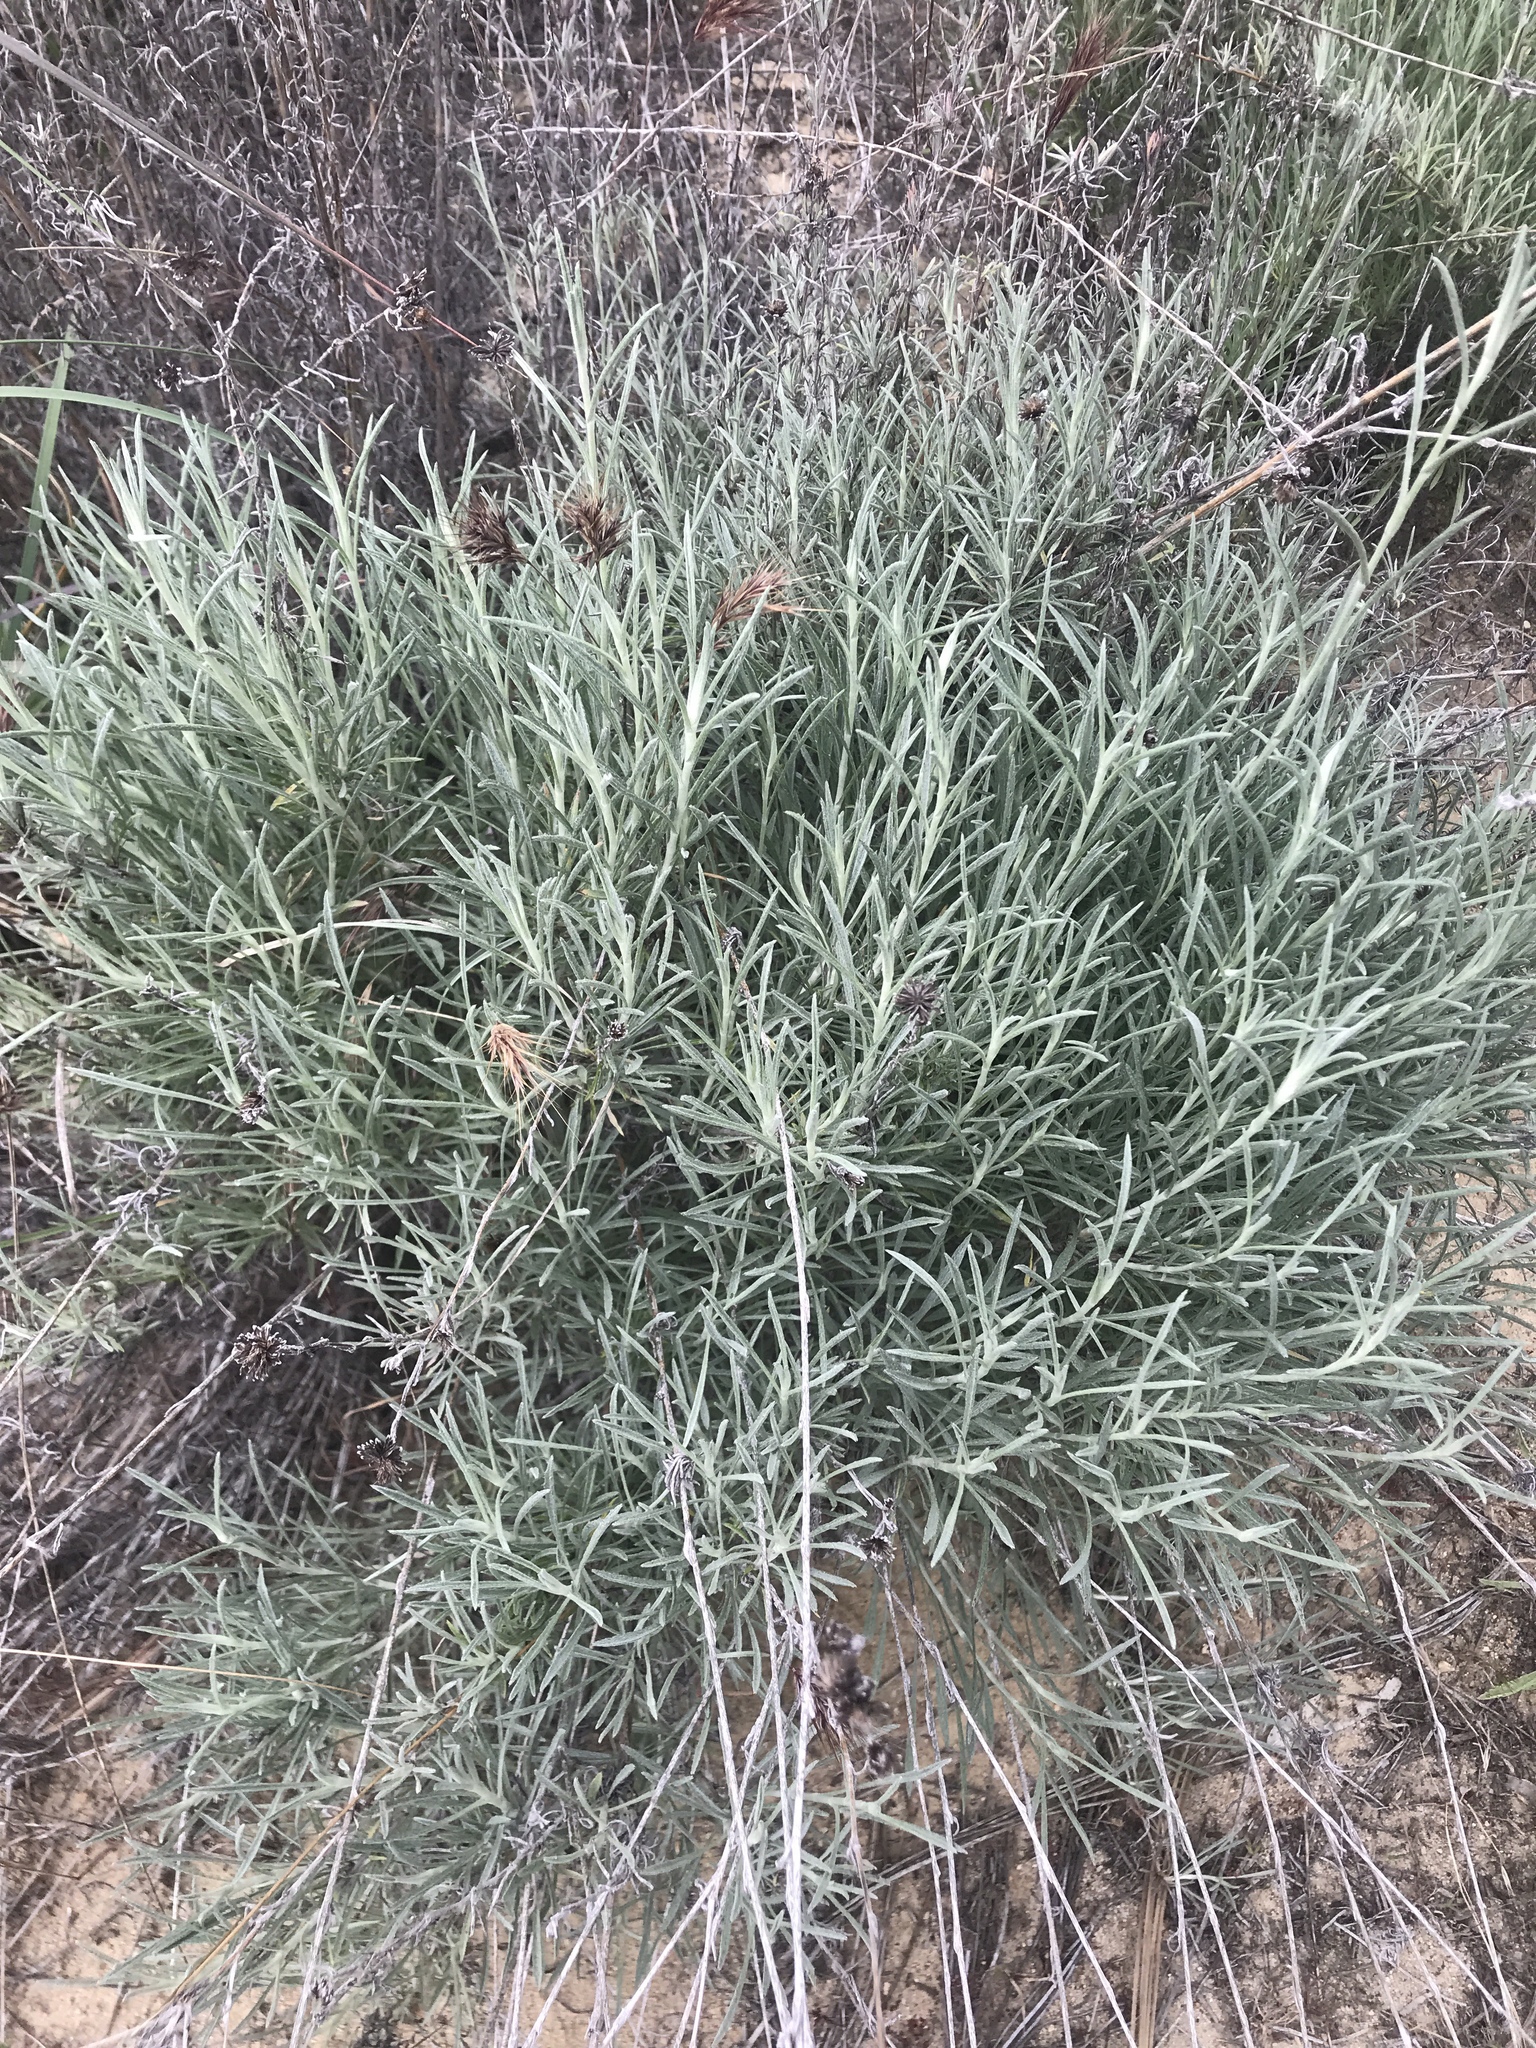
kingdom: Plantae
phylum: Tracheophyta
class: Magnoliopsida
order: Asterales
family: Asteraceae
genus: Corethrogyne
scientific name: Corethrogyne filaginifolia
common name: Sand-aster
